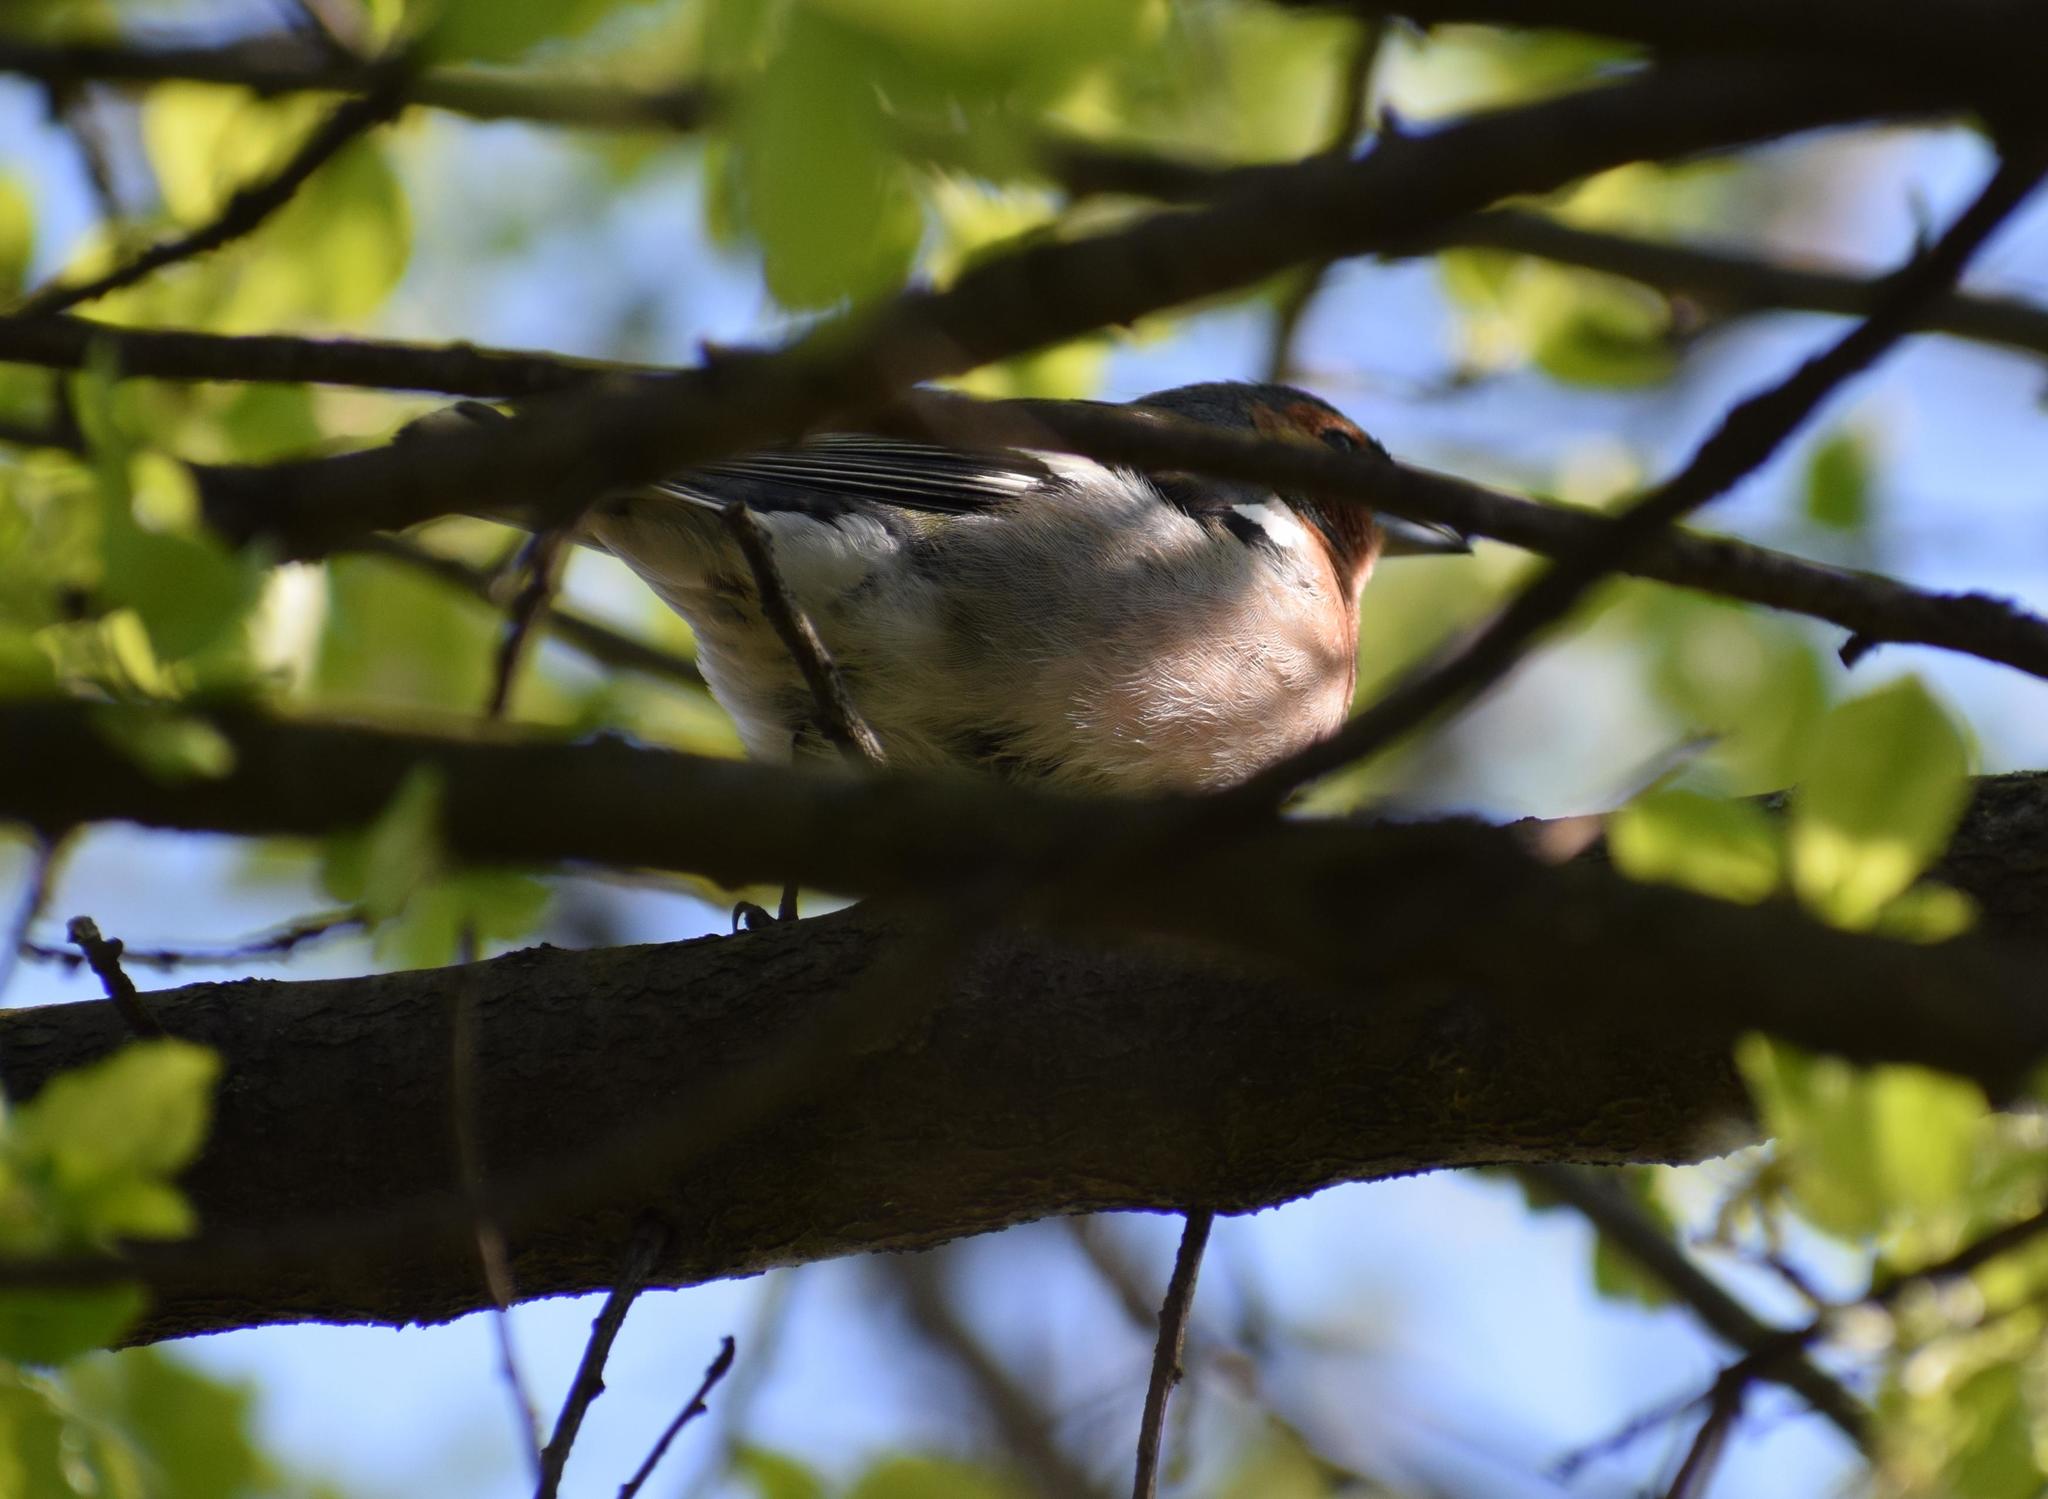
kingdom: Animalia
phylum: Chordata
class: Aves
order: Passeriformes
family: Fringillidae
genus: Fringilla
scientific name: Fringilla coelebs
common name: Common chaffinch
